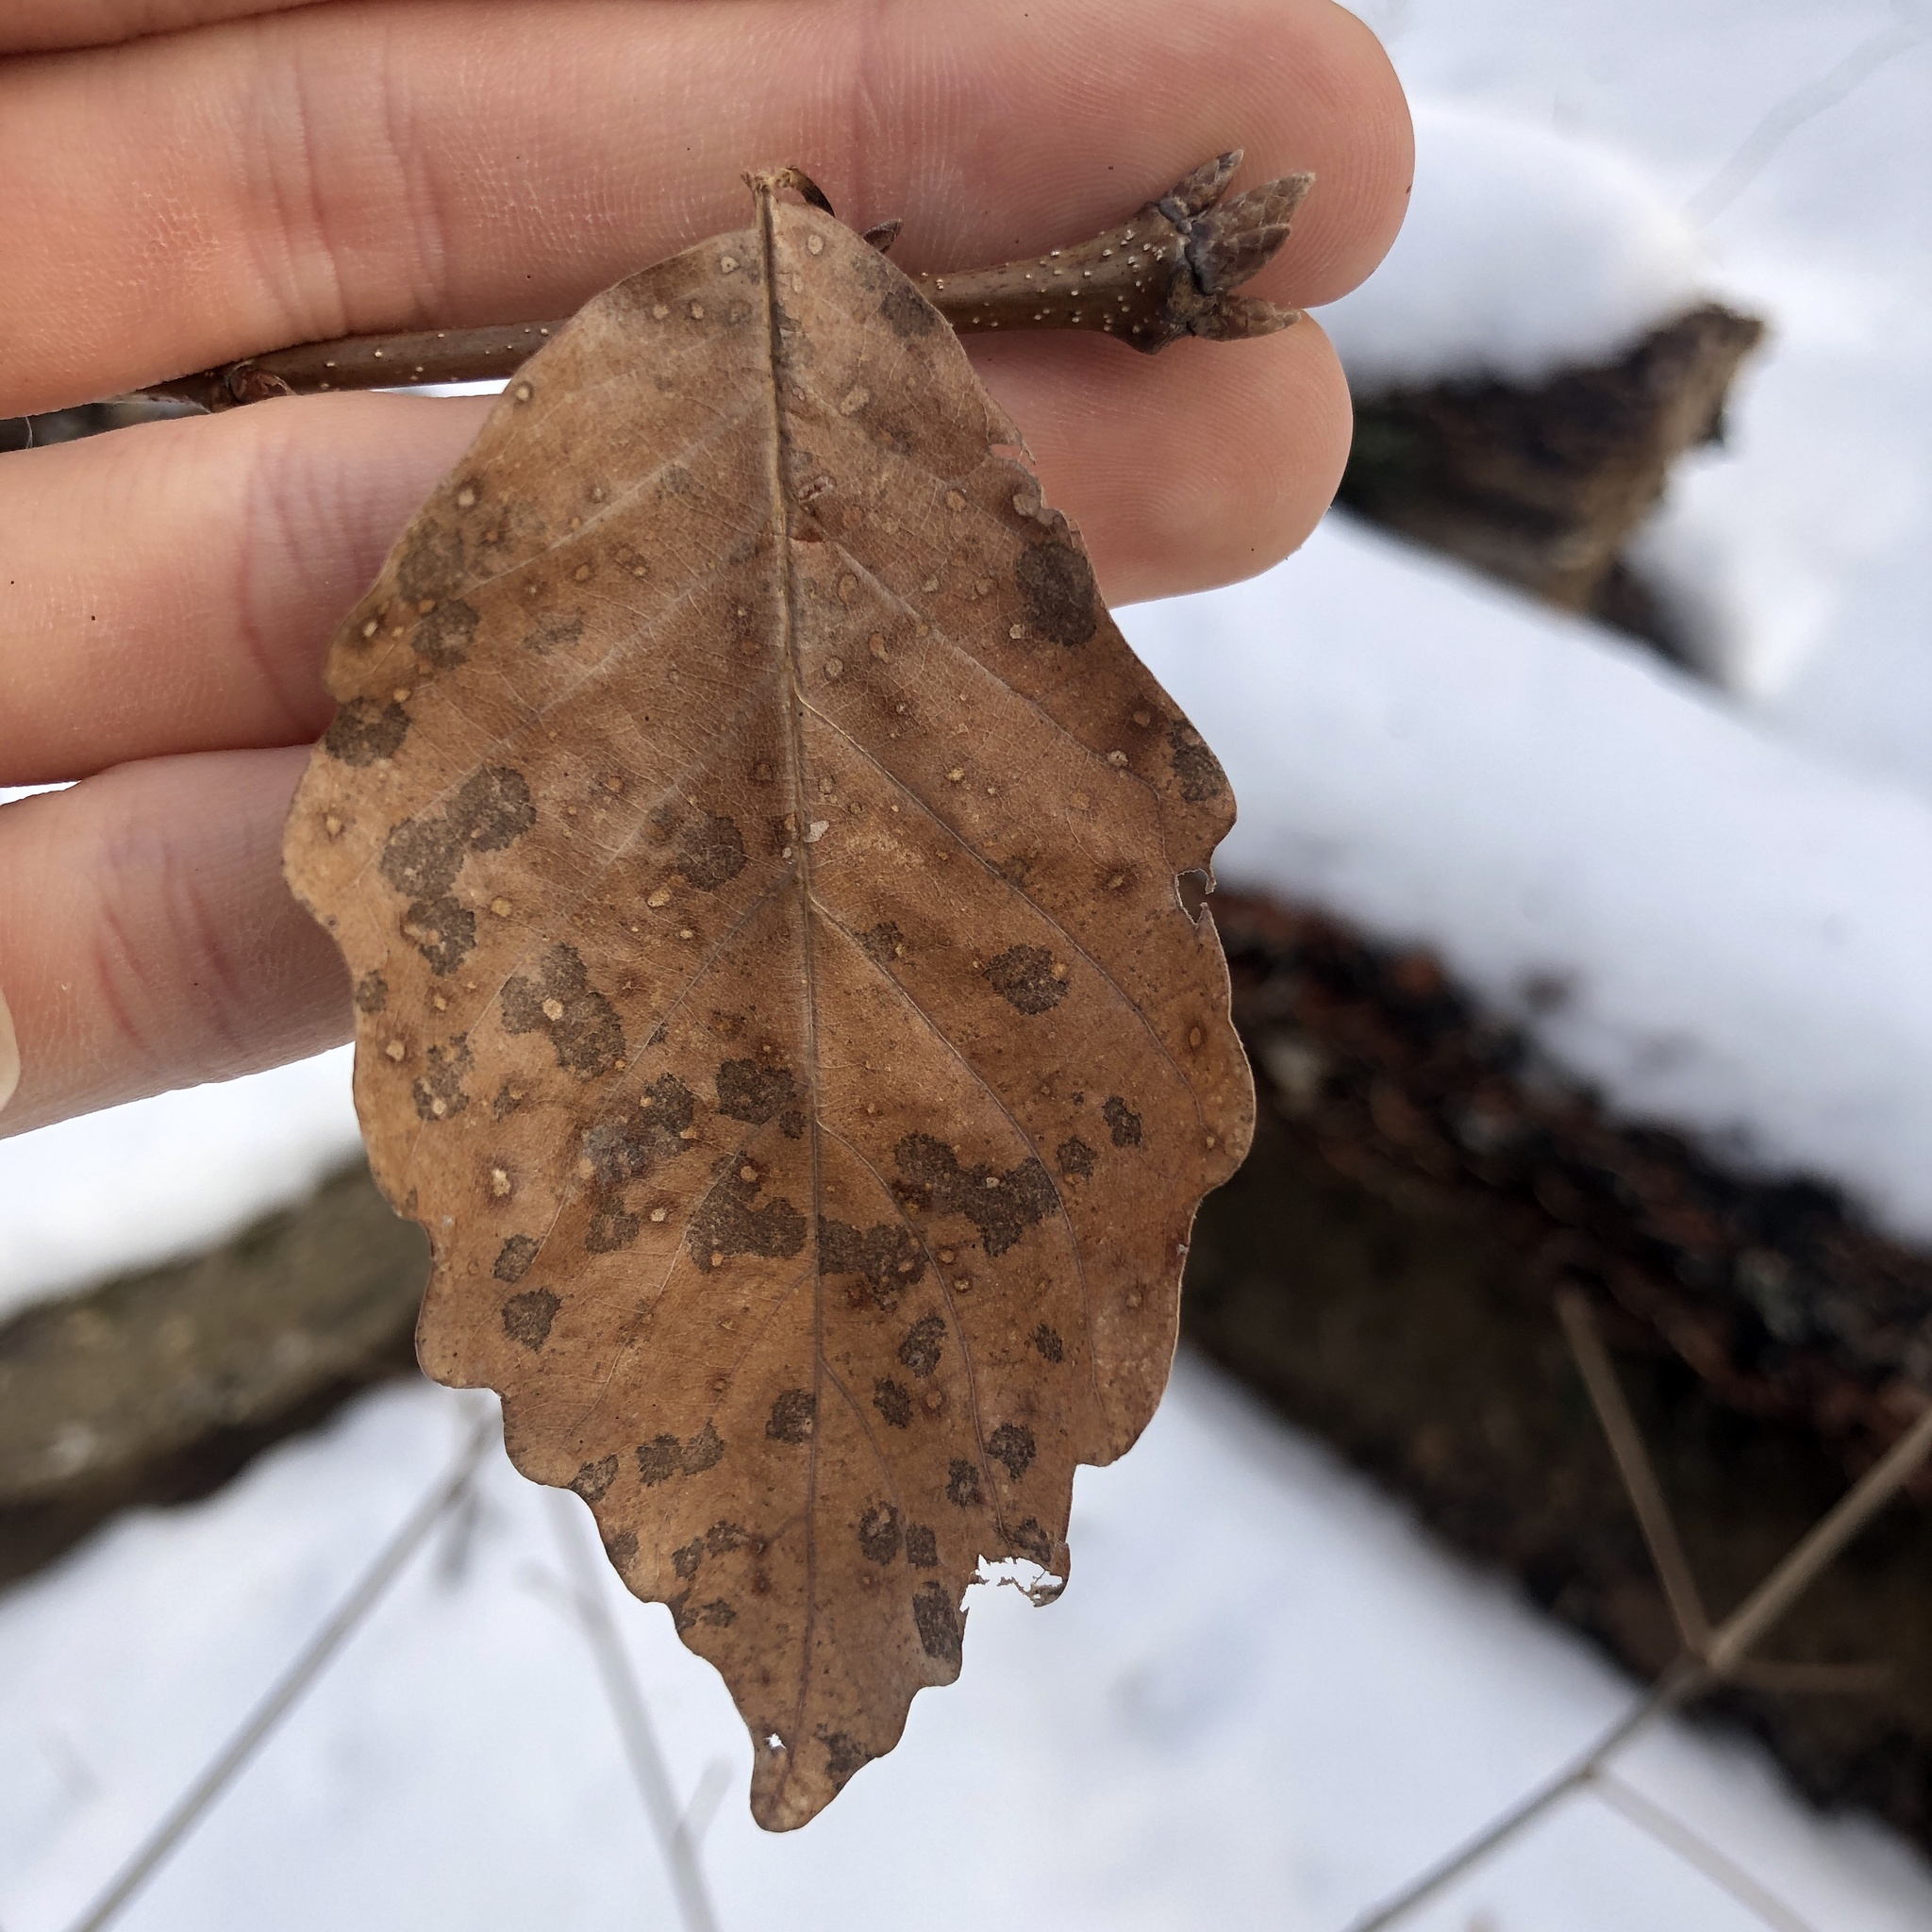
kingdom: Plantae
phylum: Tracheophyta
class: Magnoliopsida
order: Fagales
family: Fagaceae
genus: Quercus
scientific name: Quercus montana
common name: Chestnut oak
